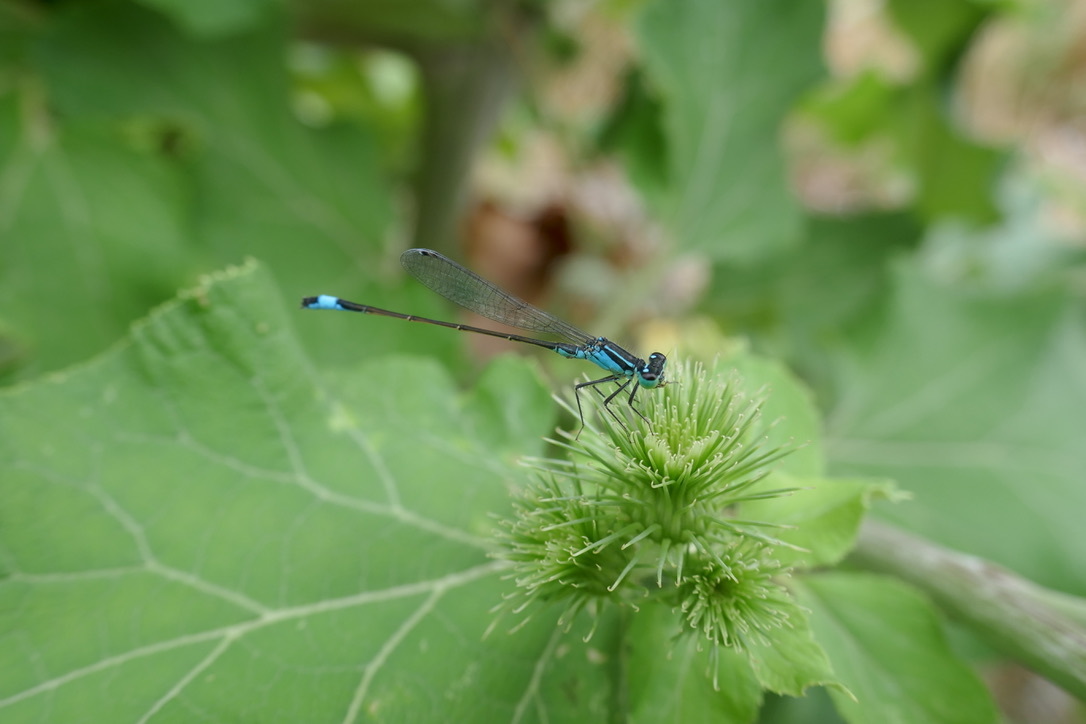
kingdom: Animalia
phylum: Arthropoda
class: Insecta
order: Odonata
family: Coenagrionidae
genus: Ischnura
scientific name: Ischnura elegans
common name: Blue-tailed damselfly
